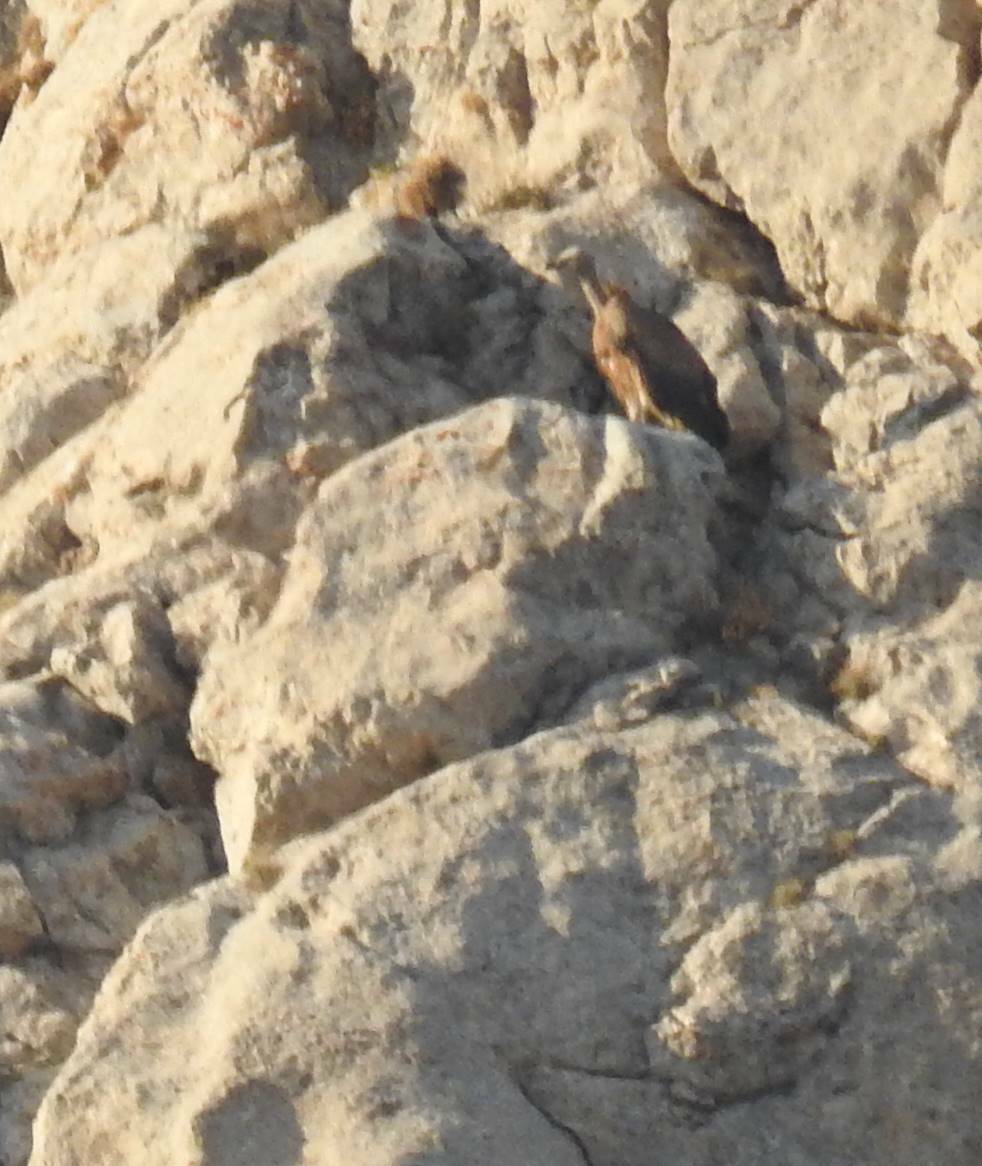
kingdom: Animalia
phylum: Chordata
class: Aves
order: Accipitriformes
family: Accipitridae
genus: Gyps
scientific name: Gyps fulvus
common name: Griffon vulture
